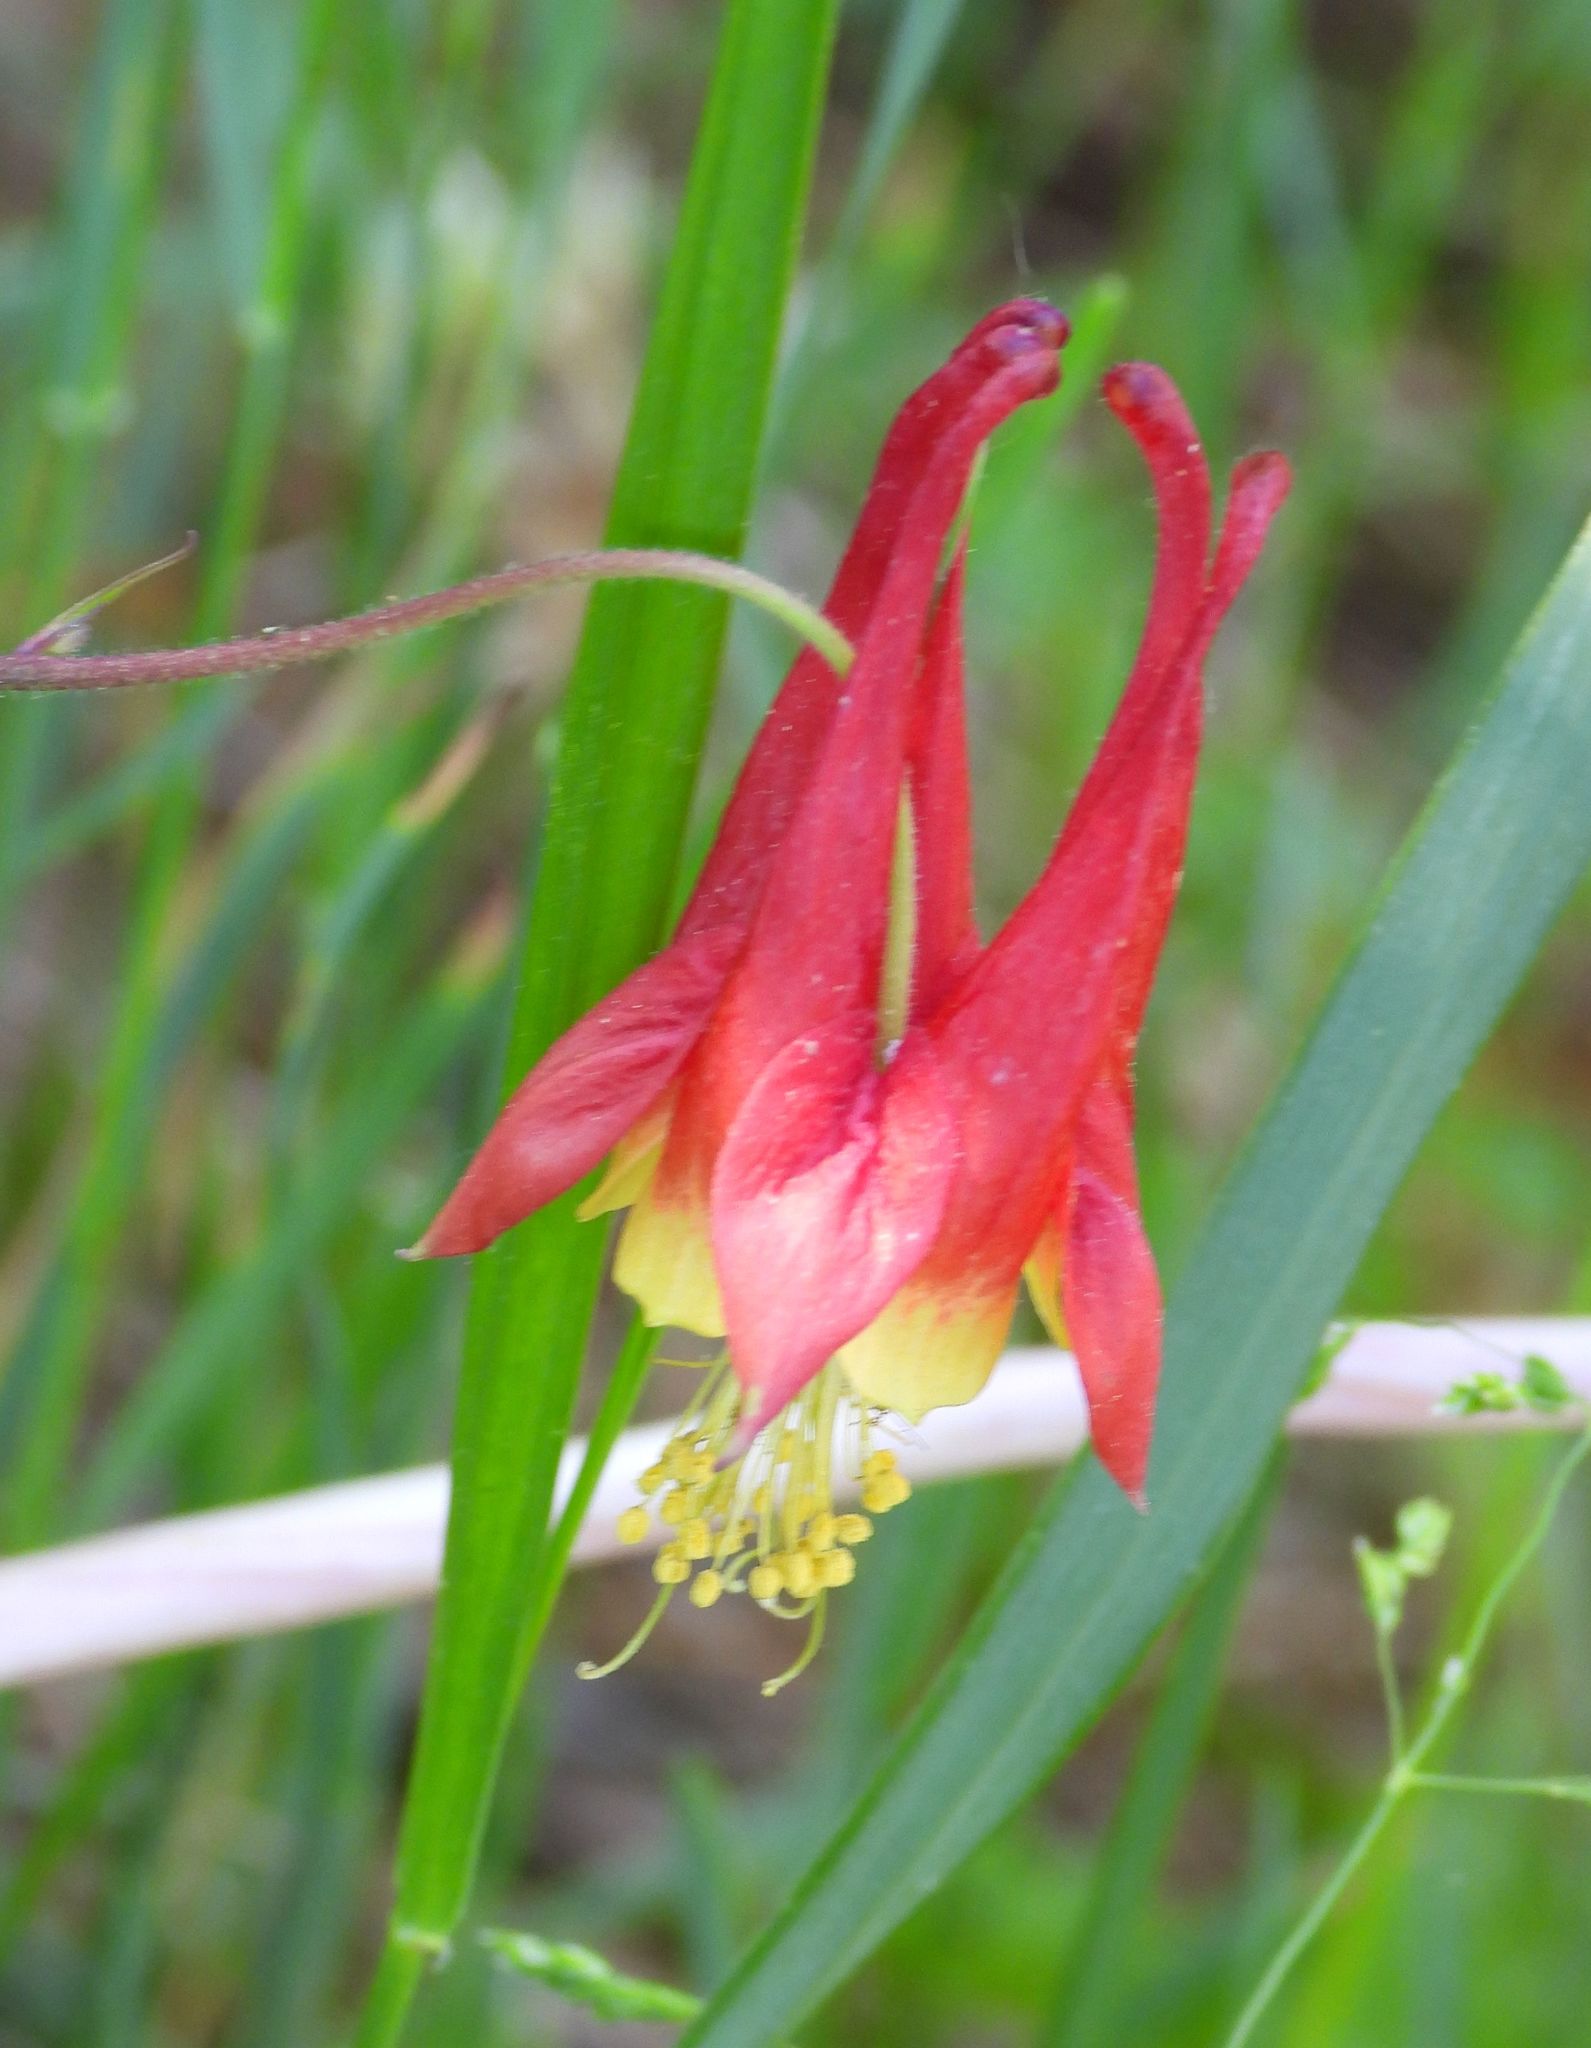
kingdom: Plantae
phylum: Tracheophyta
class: Magnoliopsida
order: Ranunculales
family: Ranunculaceae
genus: Aquilegia
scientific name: Aquilegia canadensis
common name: American columbine
